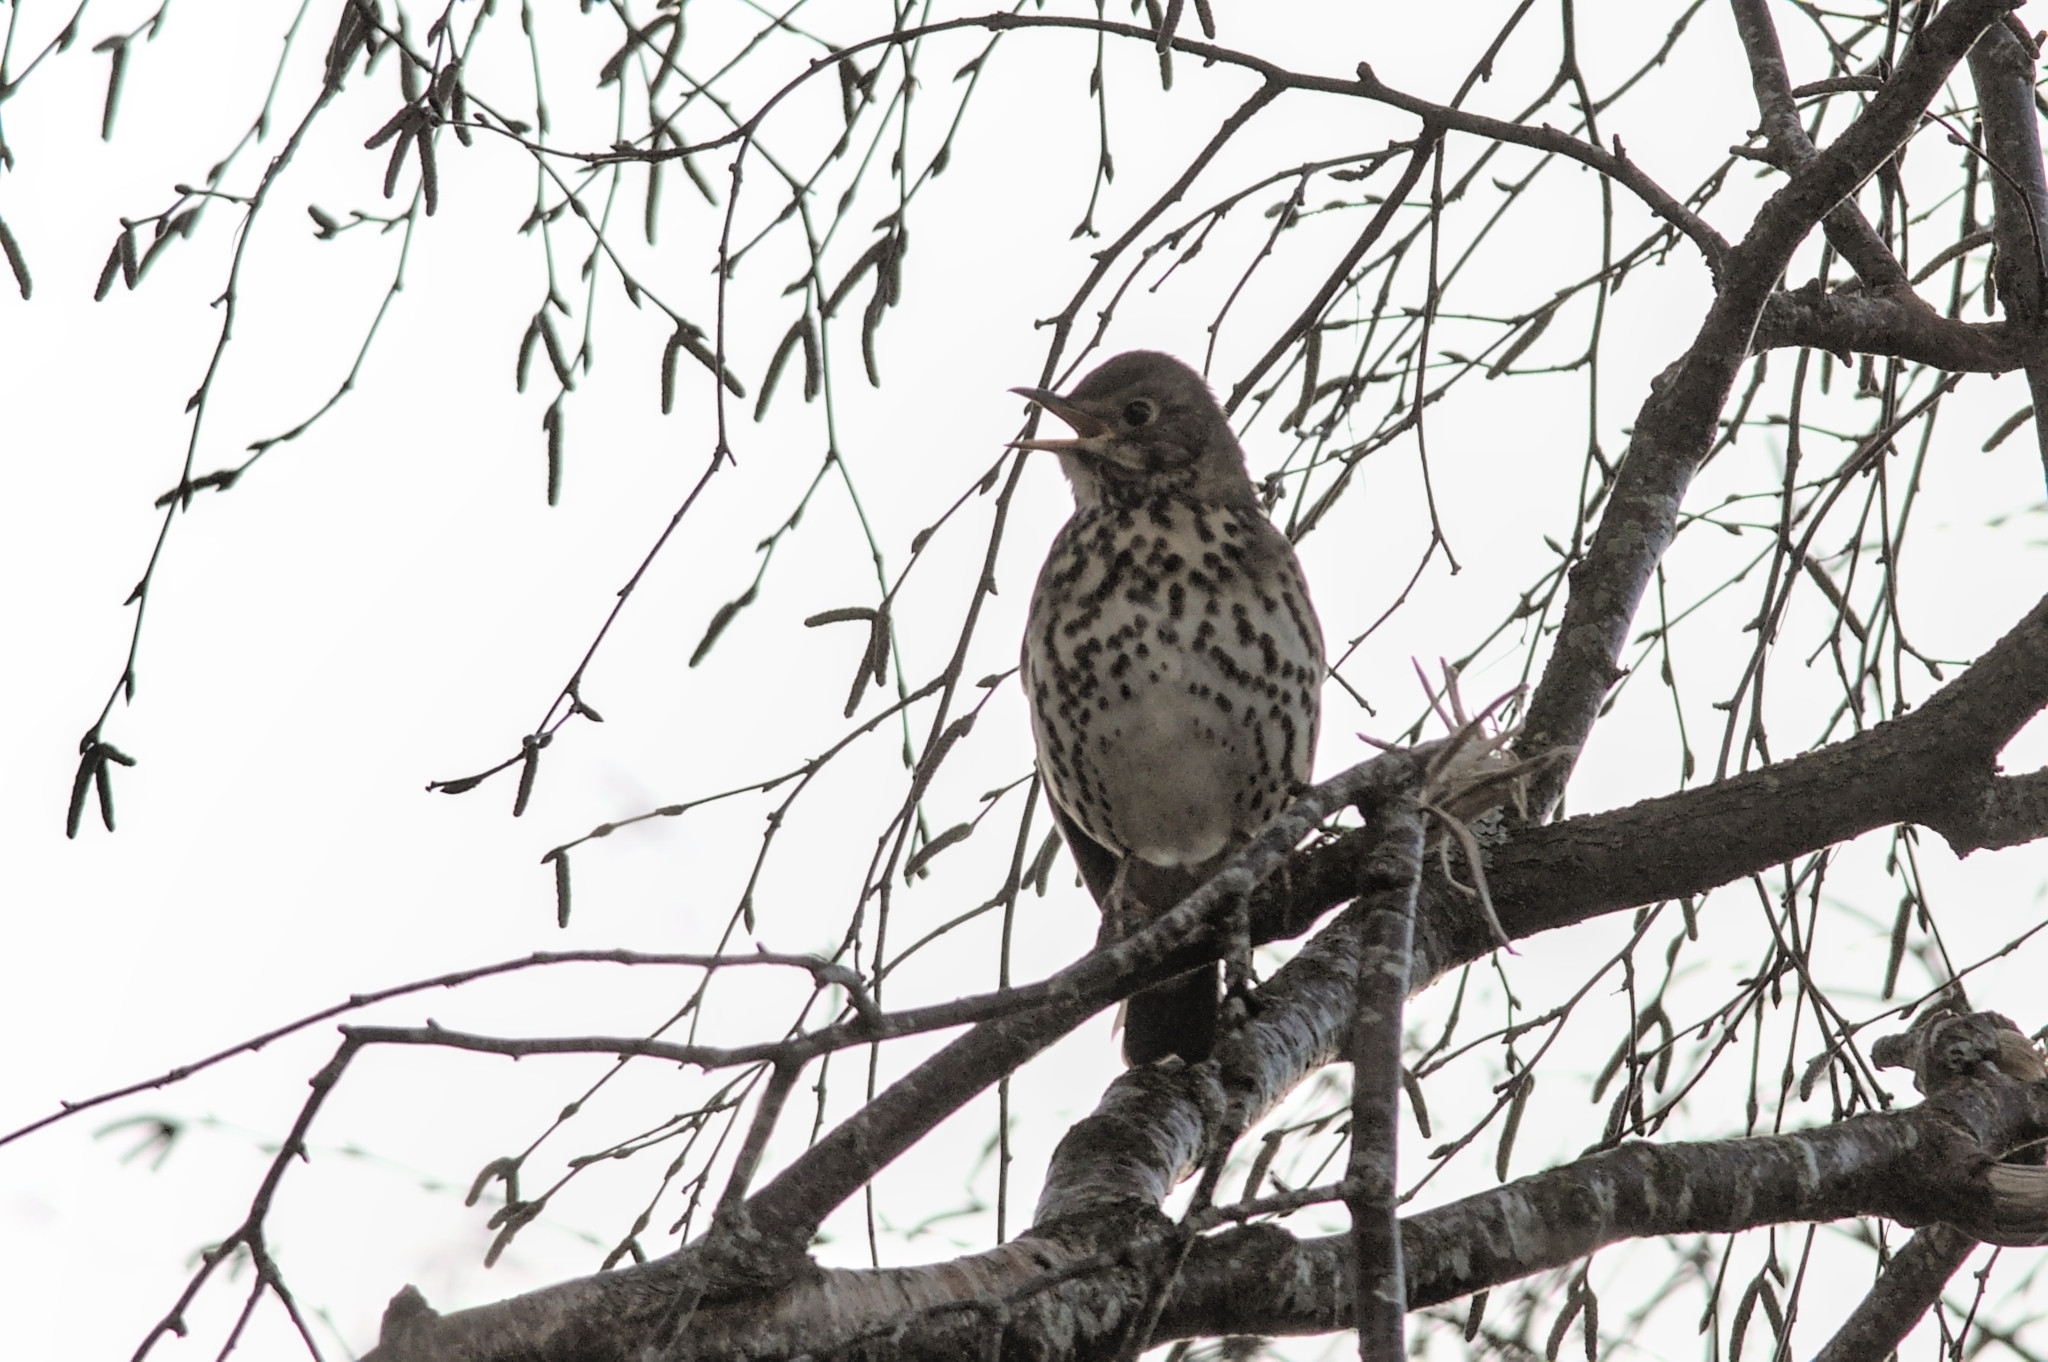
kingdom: Animalia
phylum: Chordata
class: Aves
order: Passeriformes
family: Turdidae
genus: Turdus
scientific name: Turdus philomelos
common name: Song thrush
